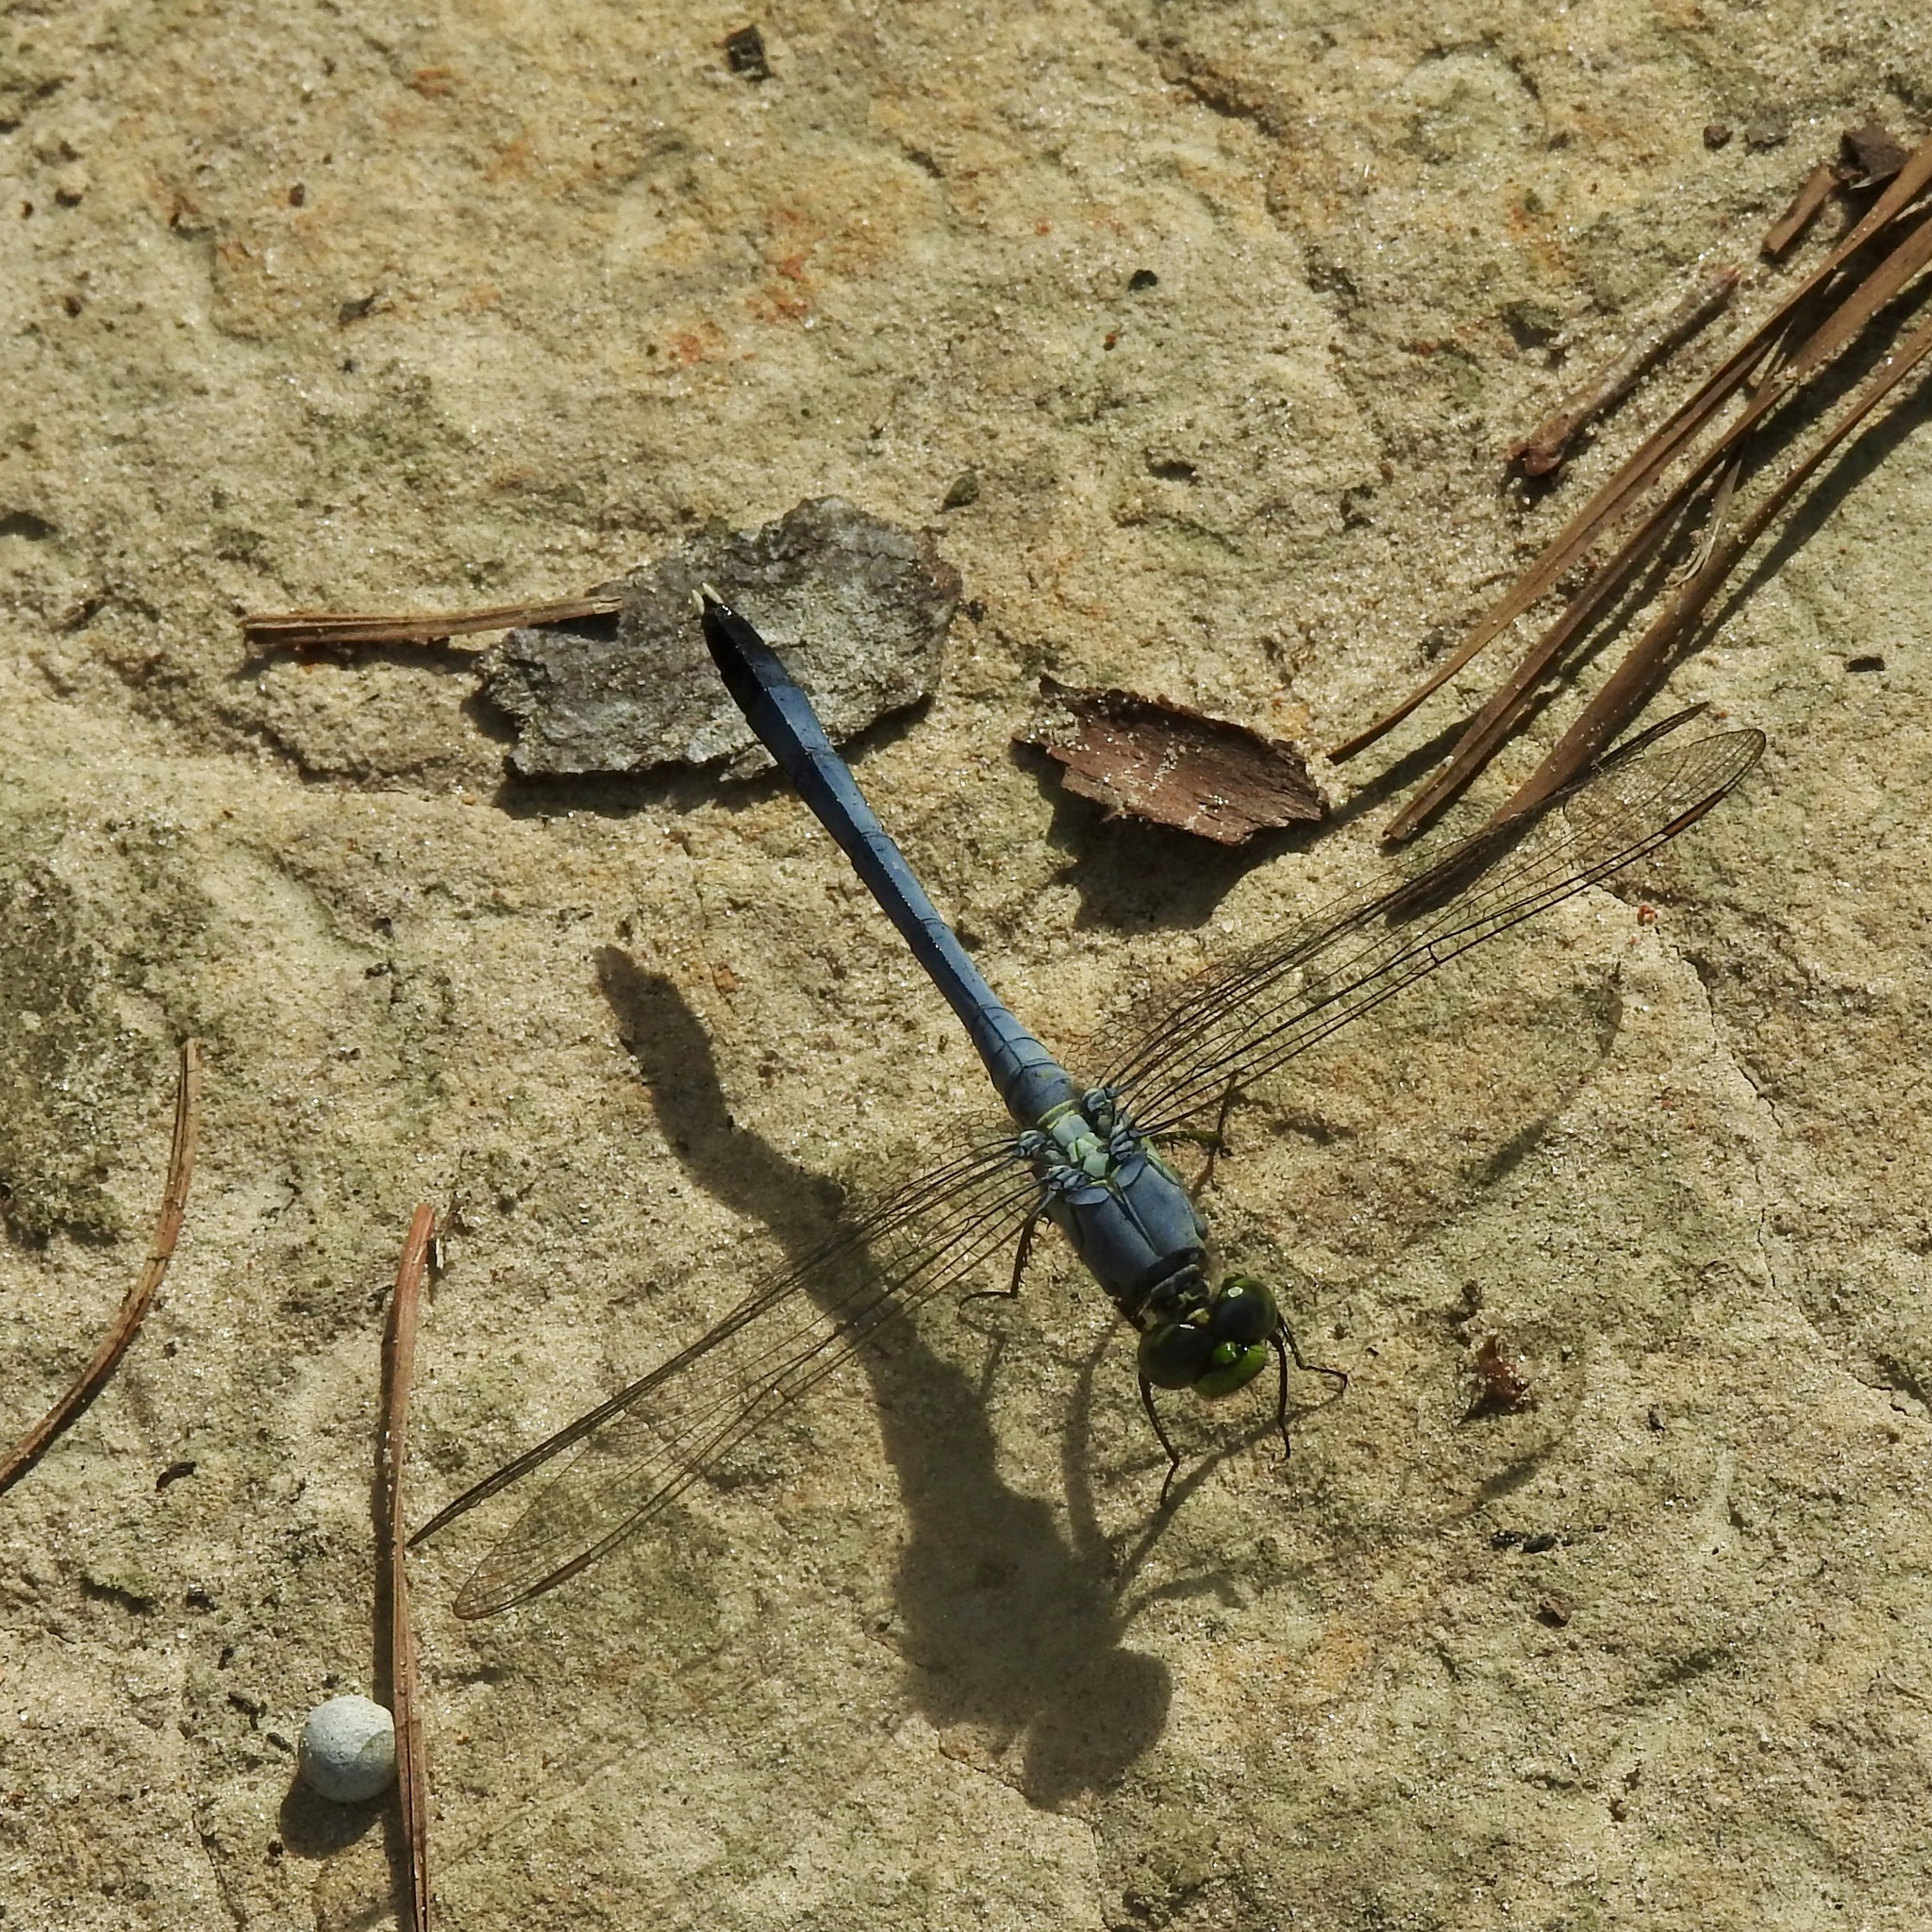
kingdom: Animalia
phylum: Arthropoda
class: Insecta
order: Odonata
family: Libellulidae
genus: Erythemis
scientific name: Erythemis simplicicollis
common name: Eastern pondhawk
